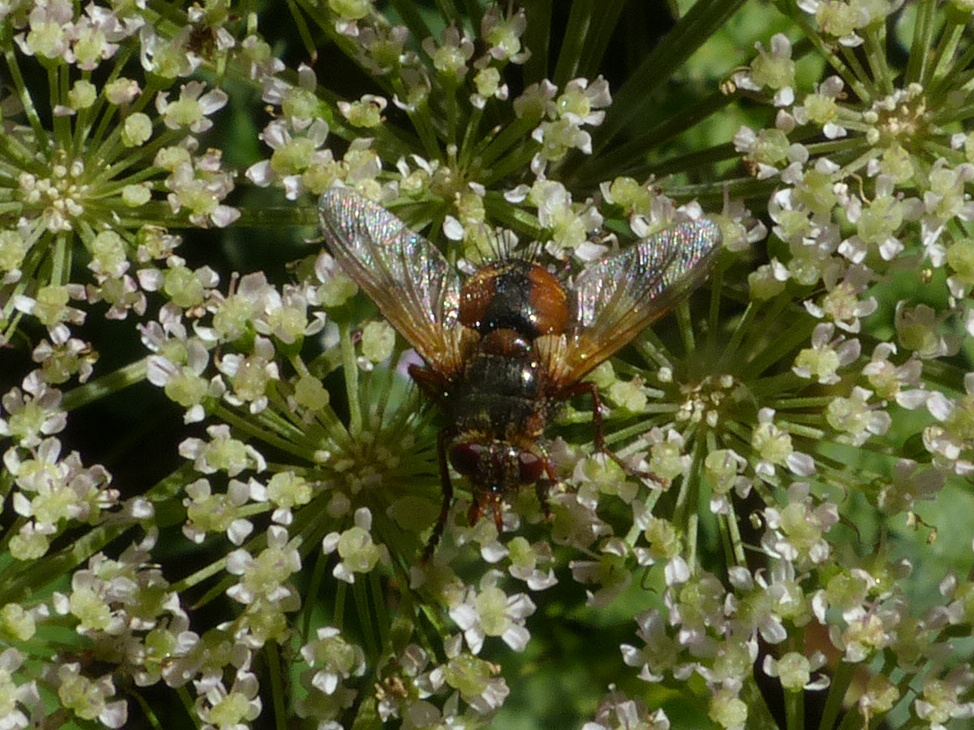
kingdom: Animalia
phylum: Arthropoda
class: Insecta
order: Diptera
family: Tachinidae
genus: Tachina
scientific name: Tachina fera
